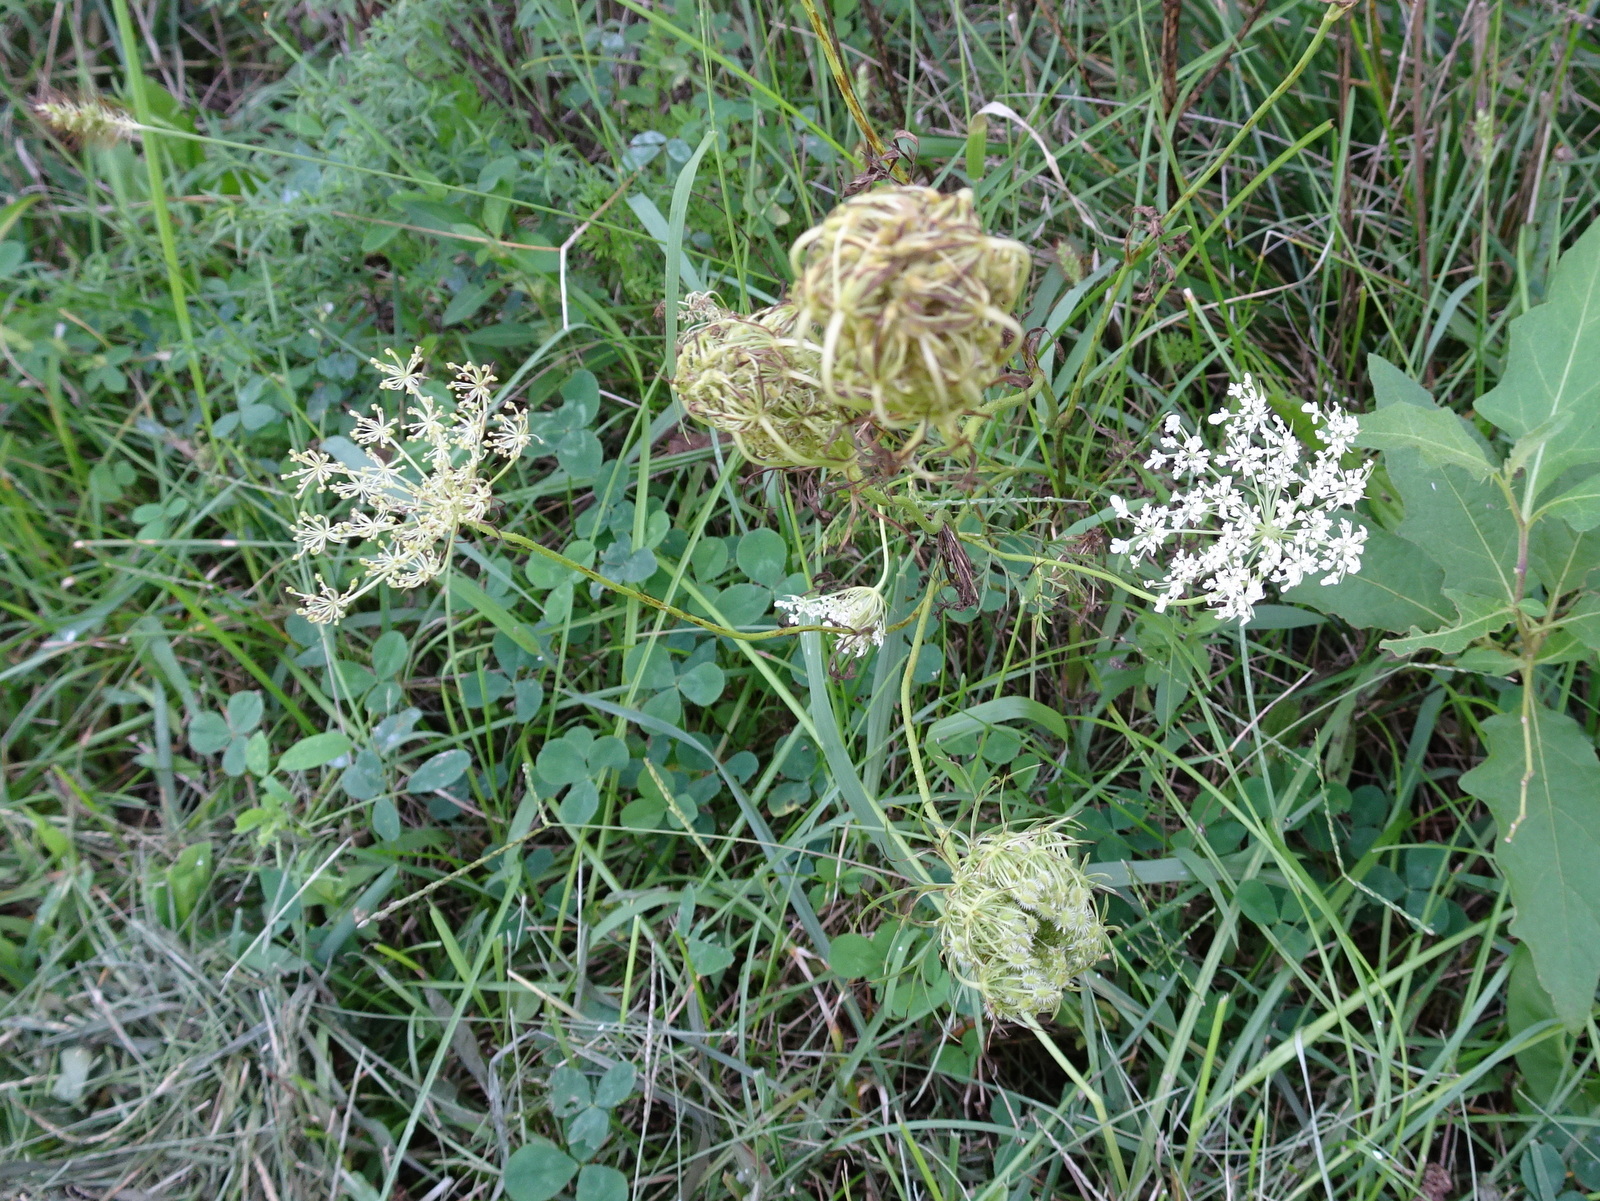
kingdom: Plantae
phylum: Tracheophyta
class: Magnoliopsida
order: Apiales
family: Apiaceae
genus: Daucus
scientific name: Daucus carota
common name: Wild carrot
